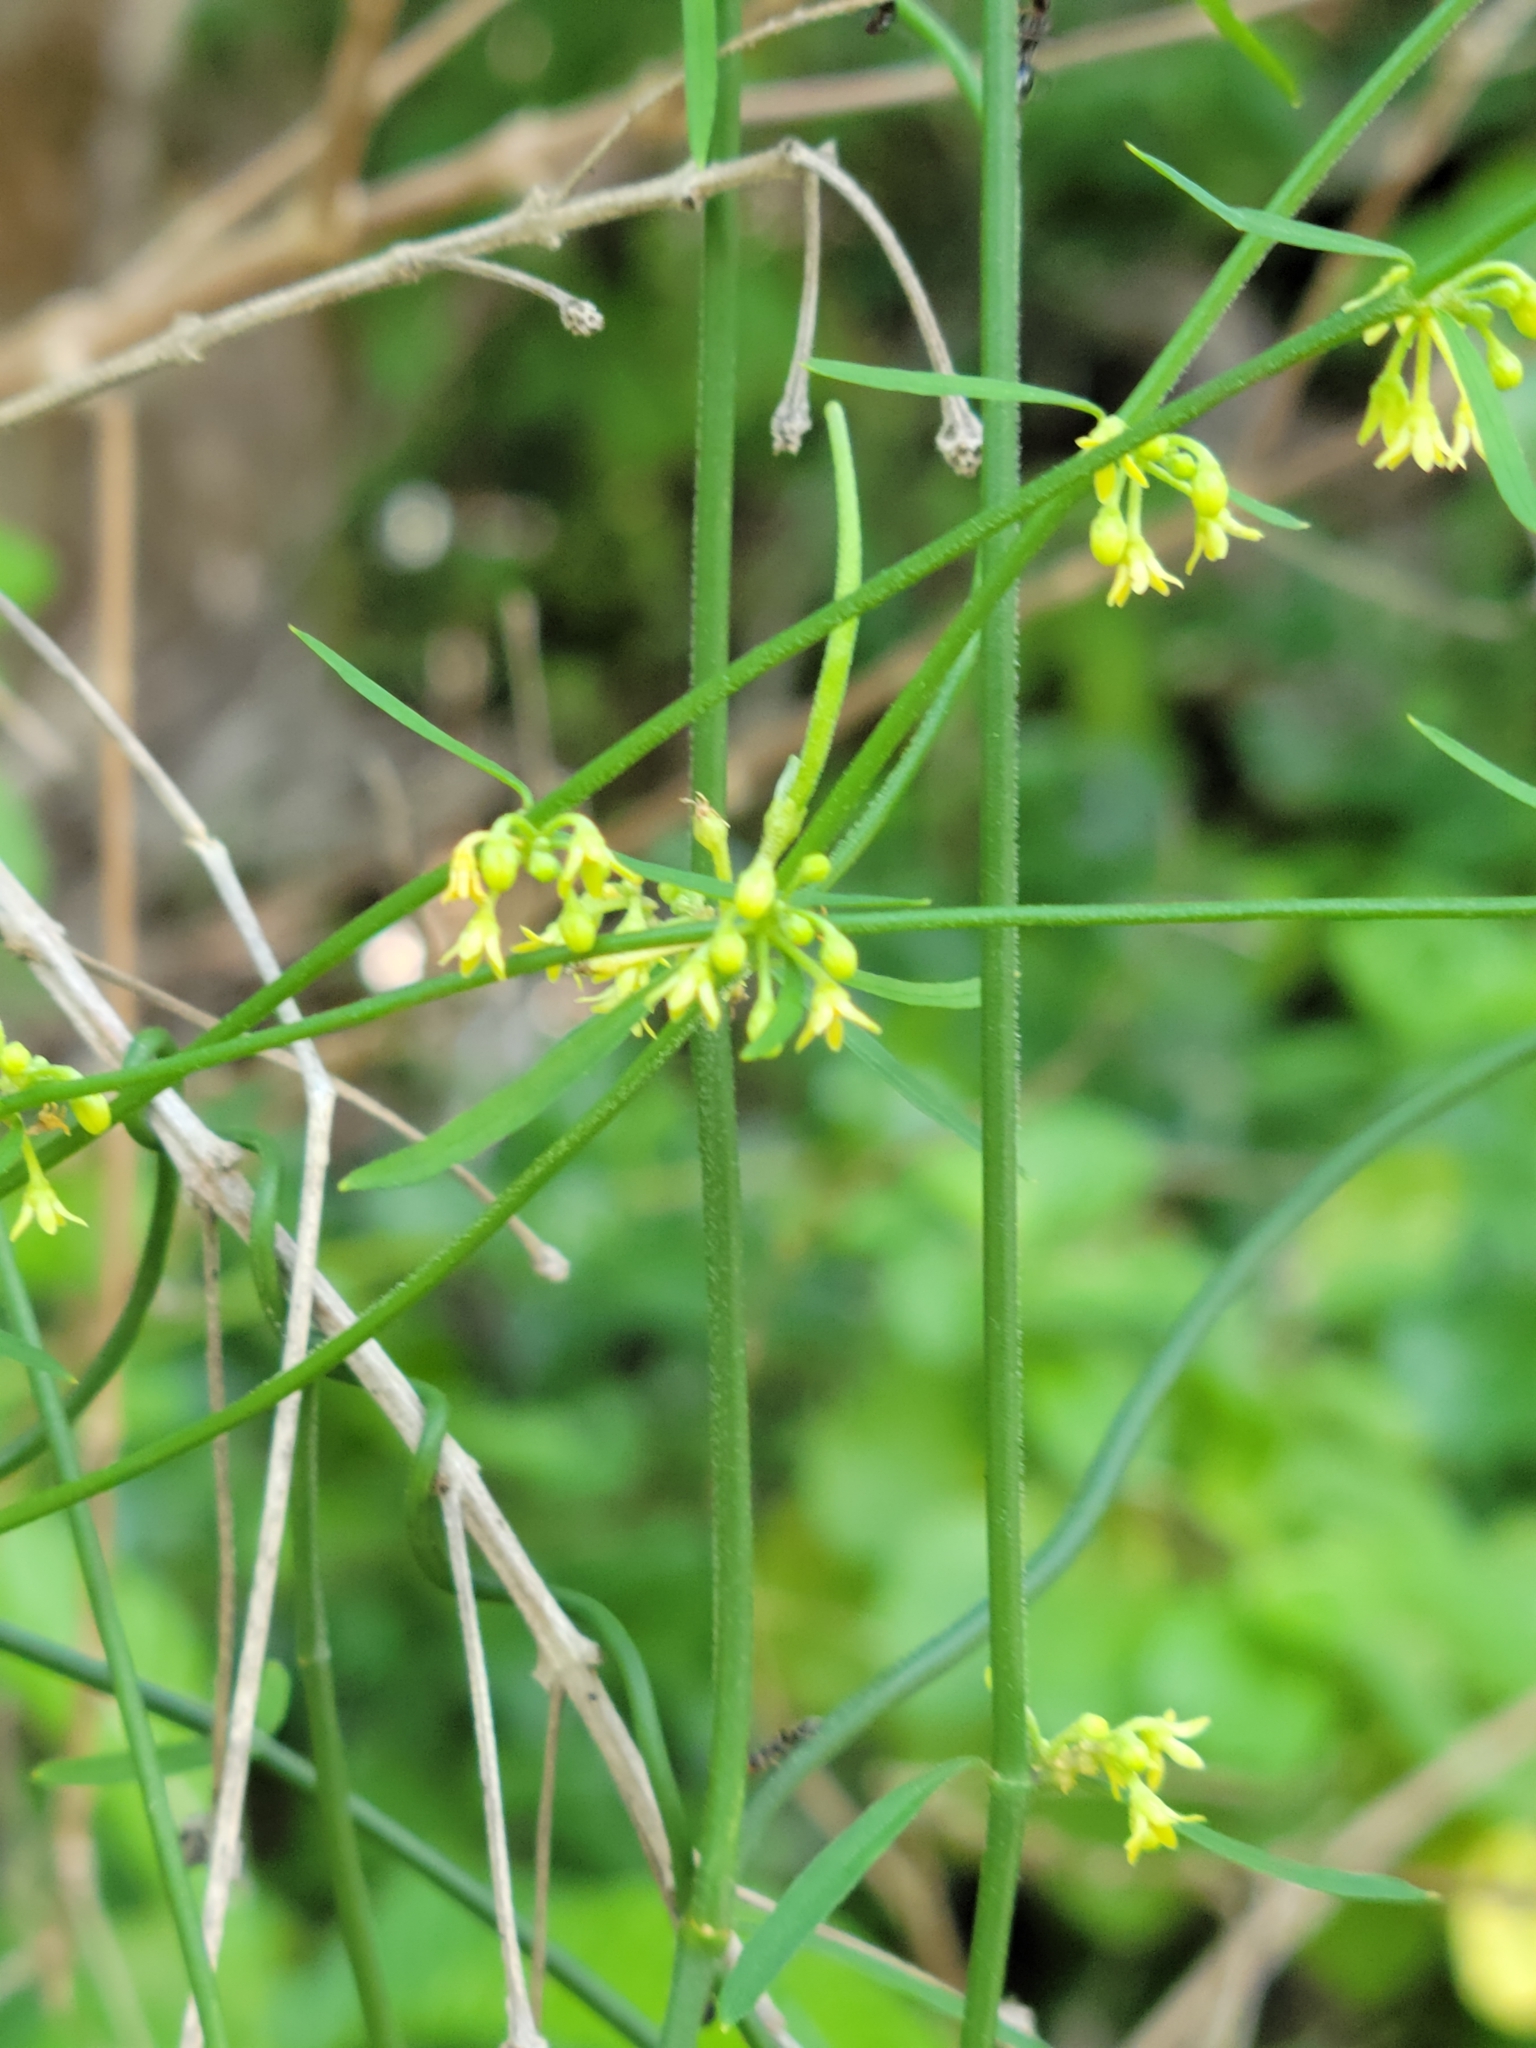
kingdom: Plantae
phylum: Tracheophyta
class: Magnoliopsida
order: Gentianales
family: Apocynaceae
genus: Orthosia
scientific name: Orthosia scoparia
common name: Leafless swallow-wort
